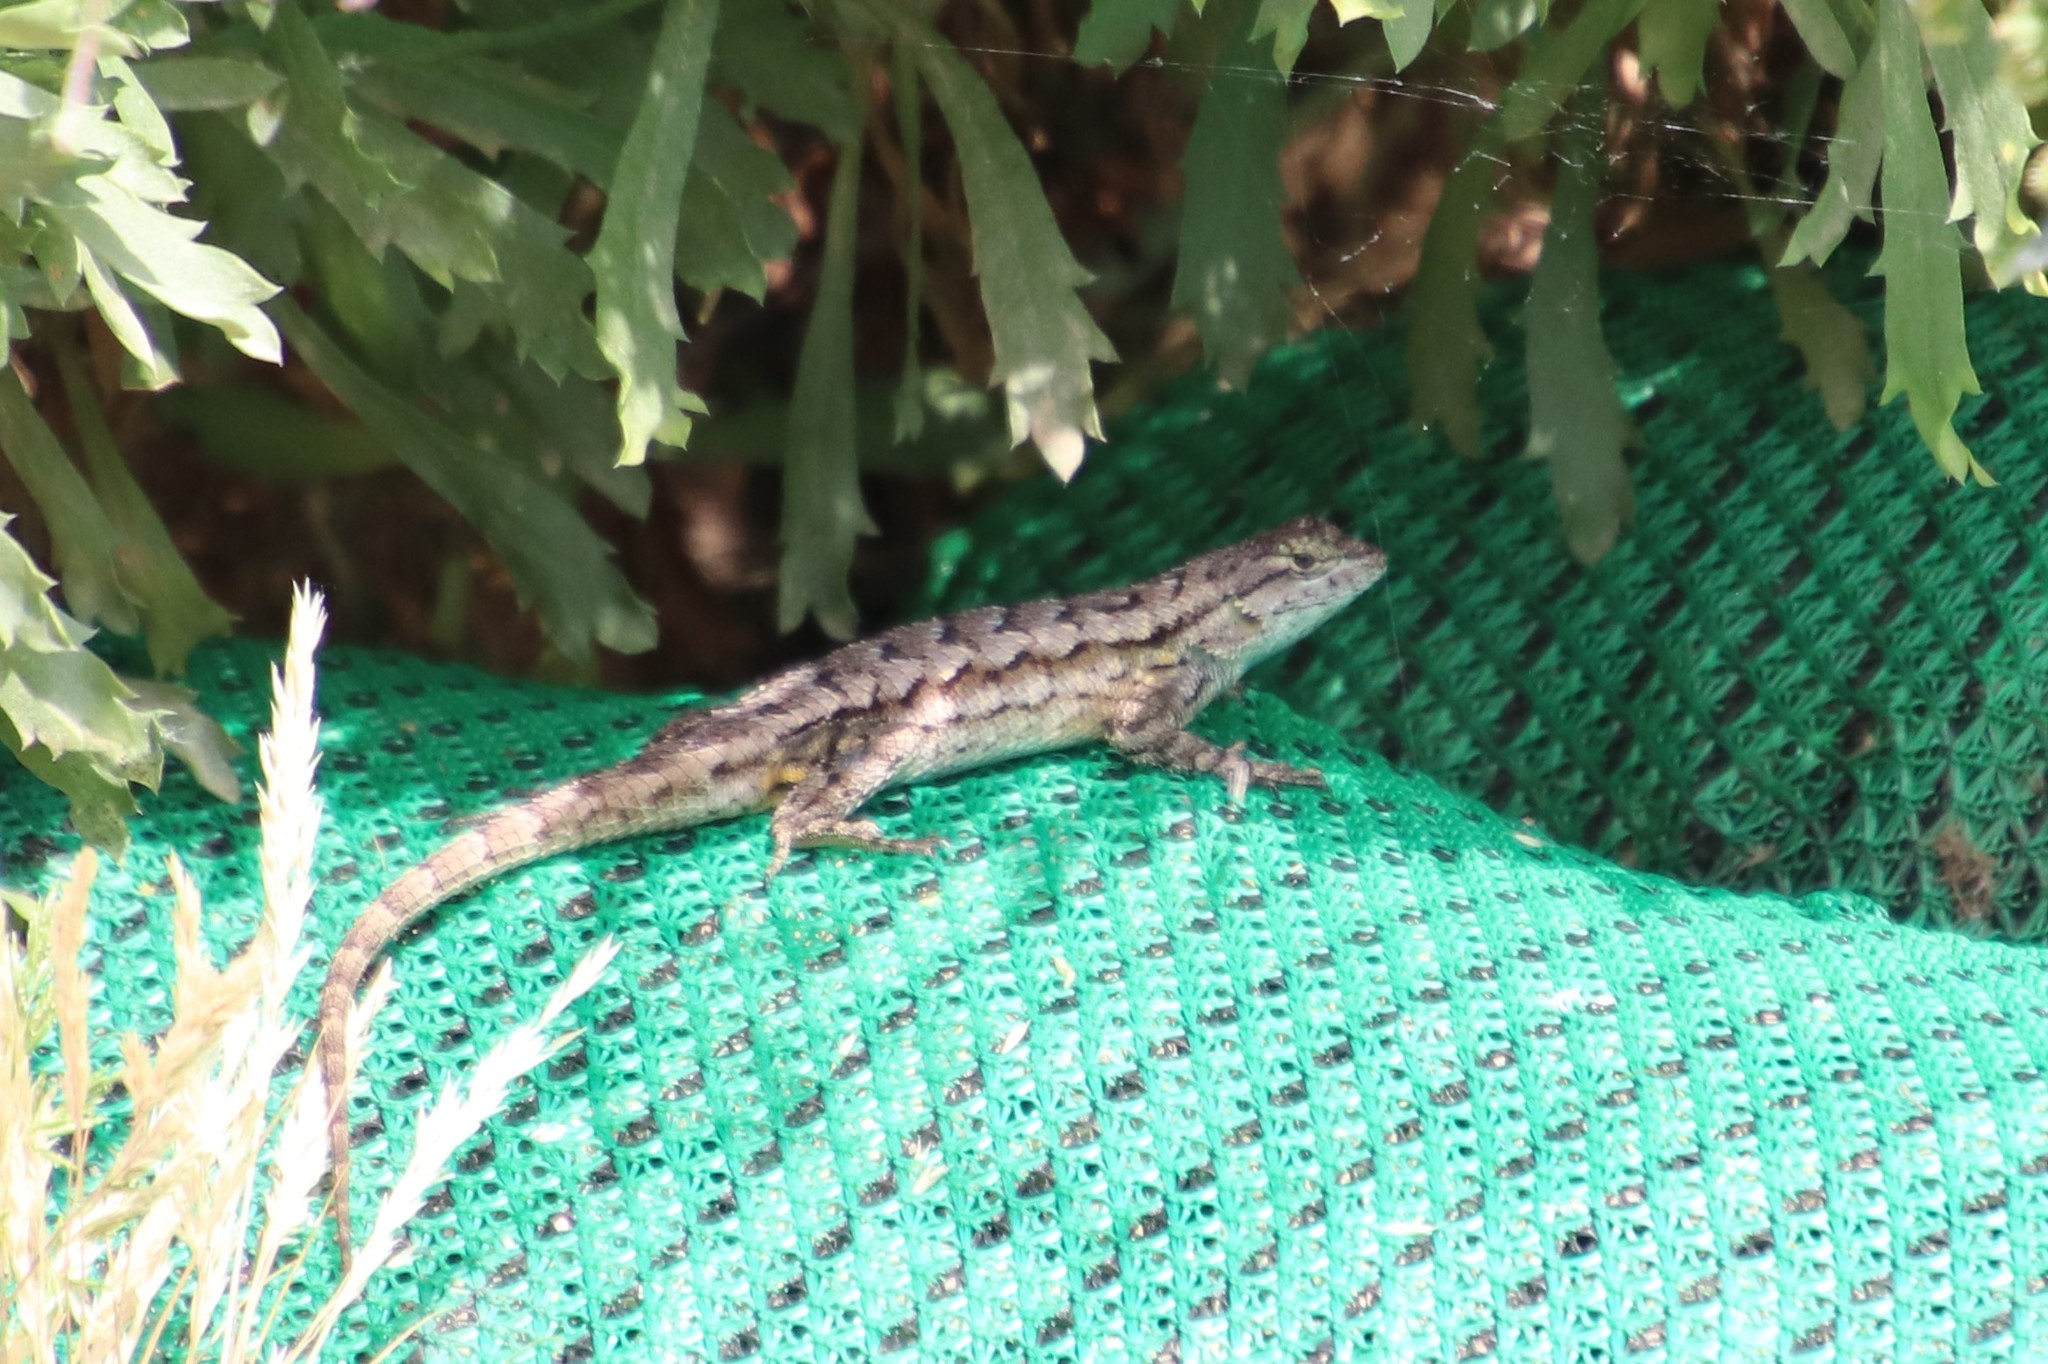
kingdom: Animalia
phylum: Chordata
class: Squamata
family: Phrynosomatidae
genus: Sceloporus
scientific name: Sceloporus occidentalis
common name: Western fence lizard
